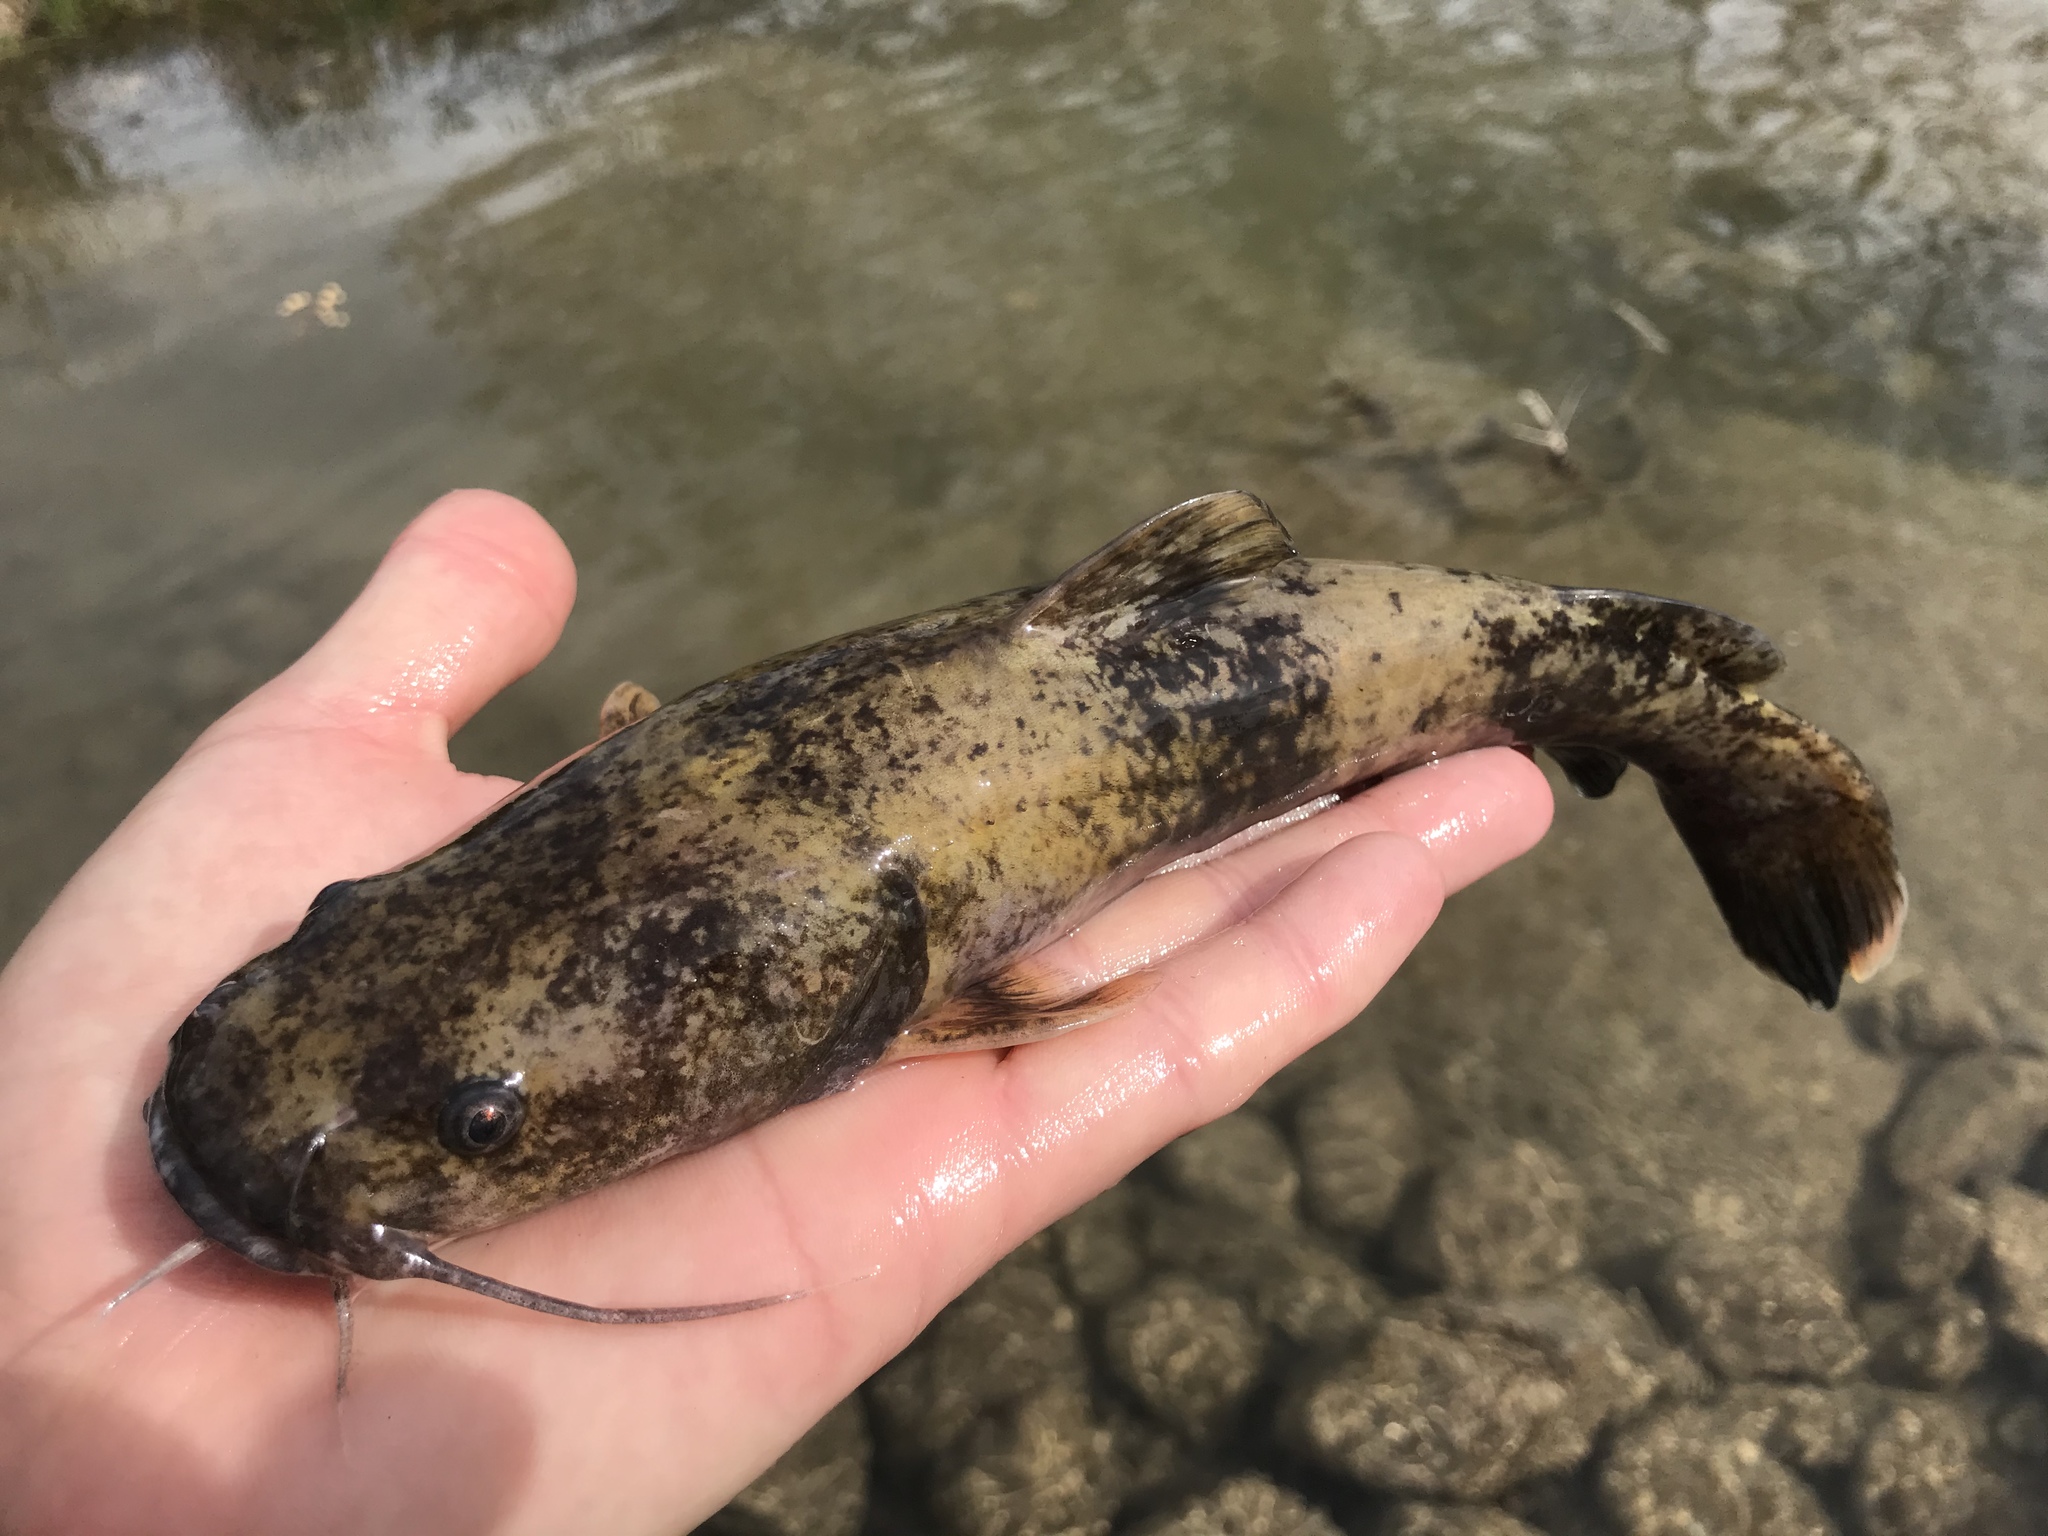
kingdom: Animalia
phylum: Chordata
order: Siluriformes
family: Ictaluridae
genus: Pylodictis
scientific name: Pylodictis olivaris
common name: Flathead catfish
